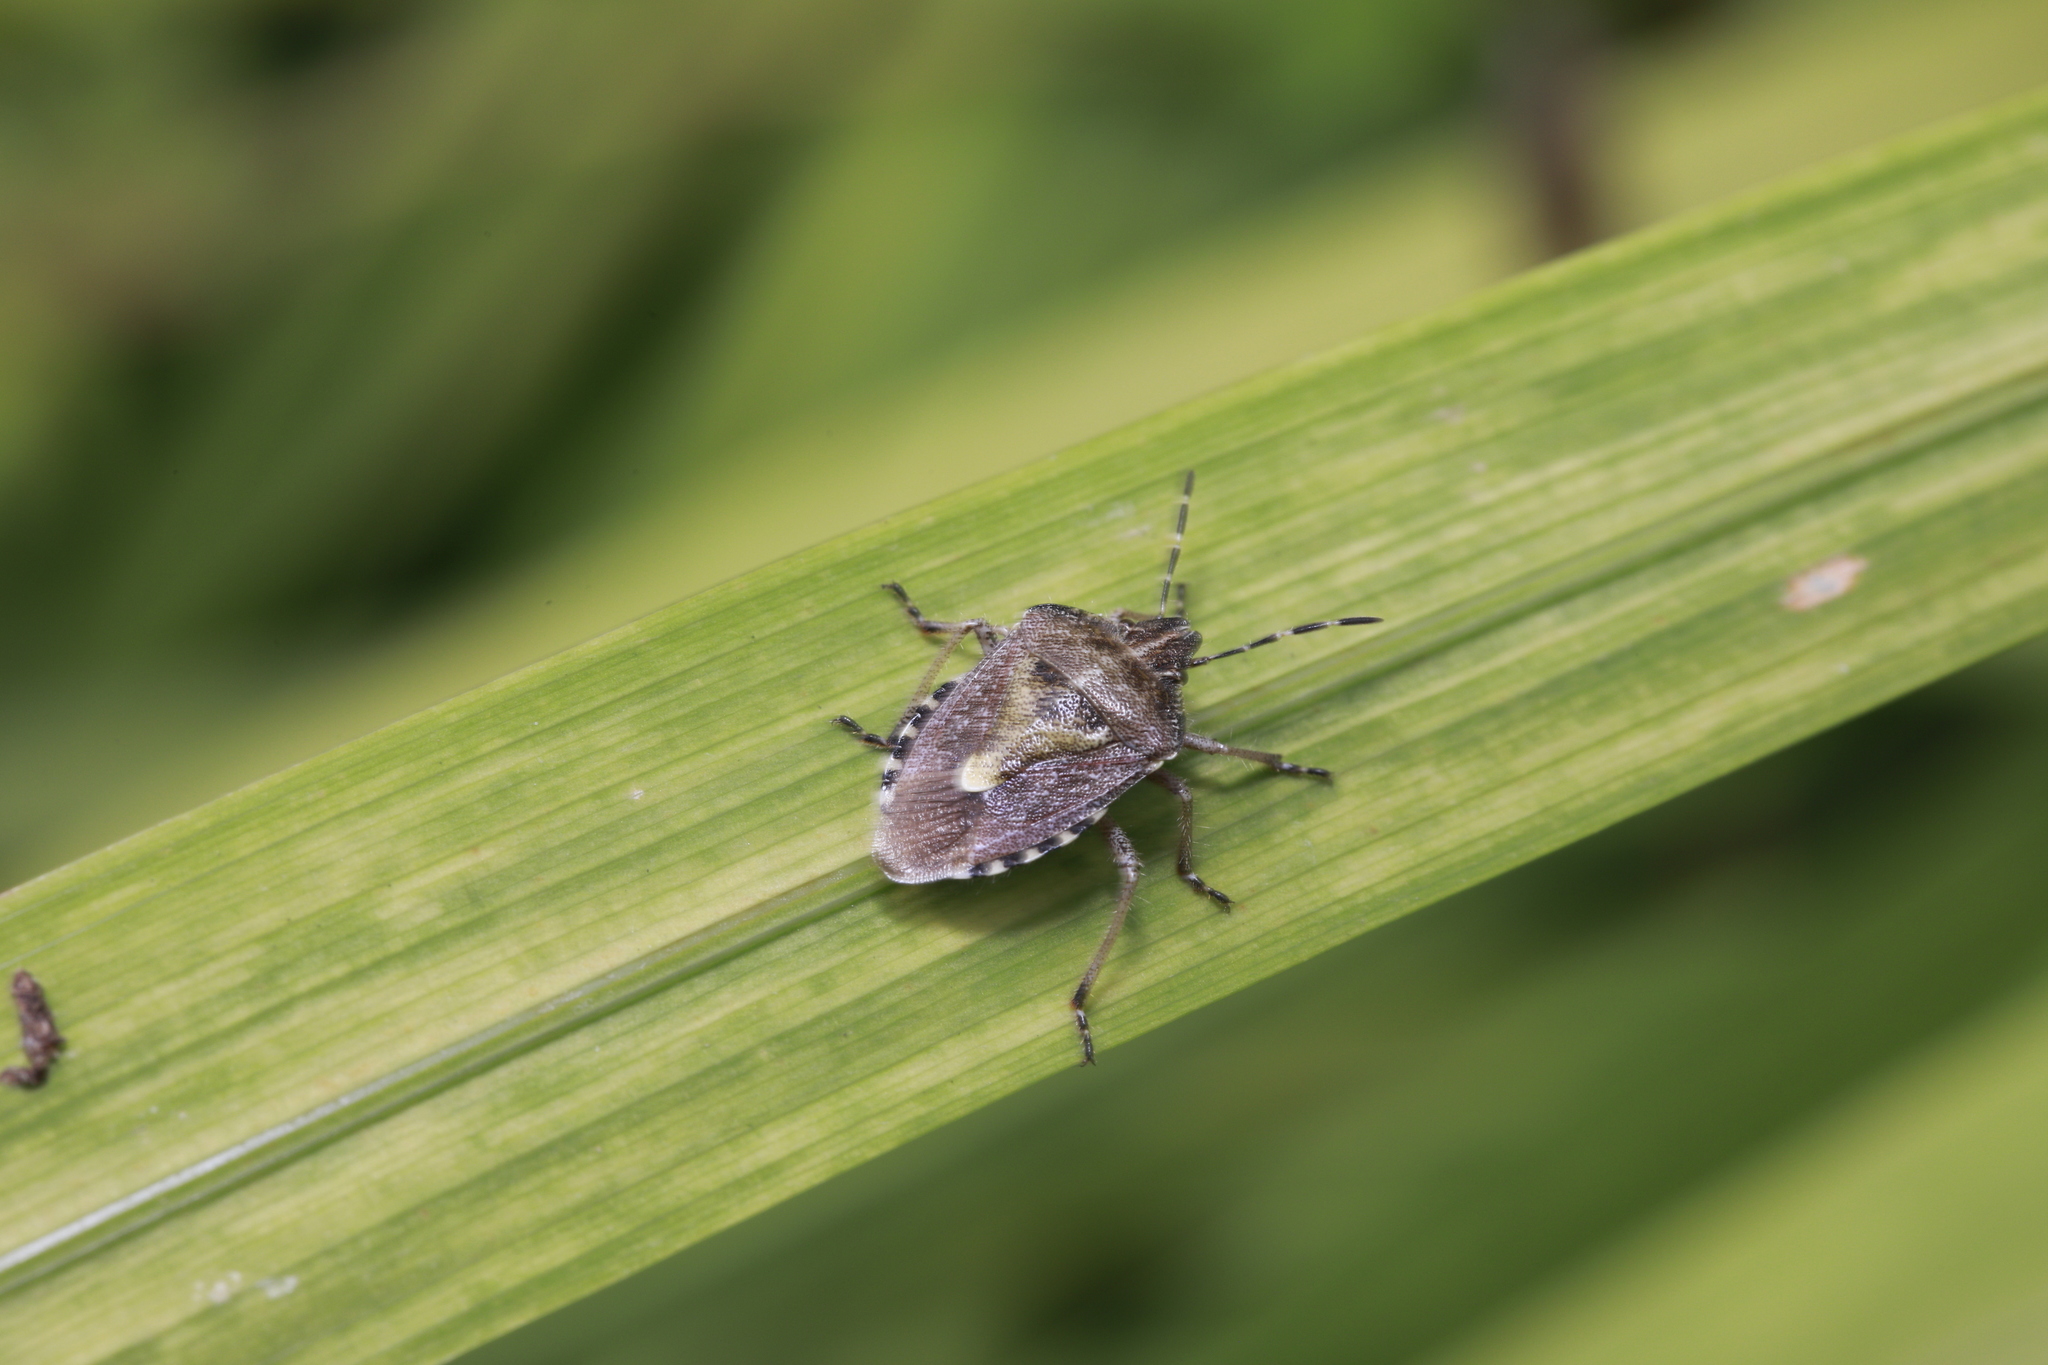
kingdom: Animalia
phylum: Arthropoda
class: Insecta
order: Hemiptera
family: Pentatomidae
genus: Dolycoris
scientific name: Dolycoris baccarum
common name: Sloe bug
